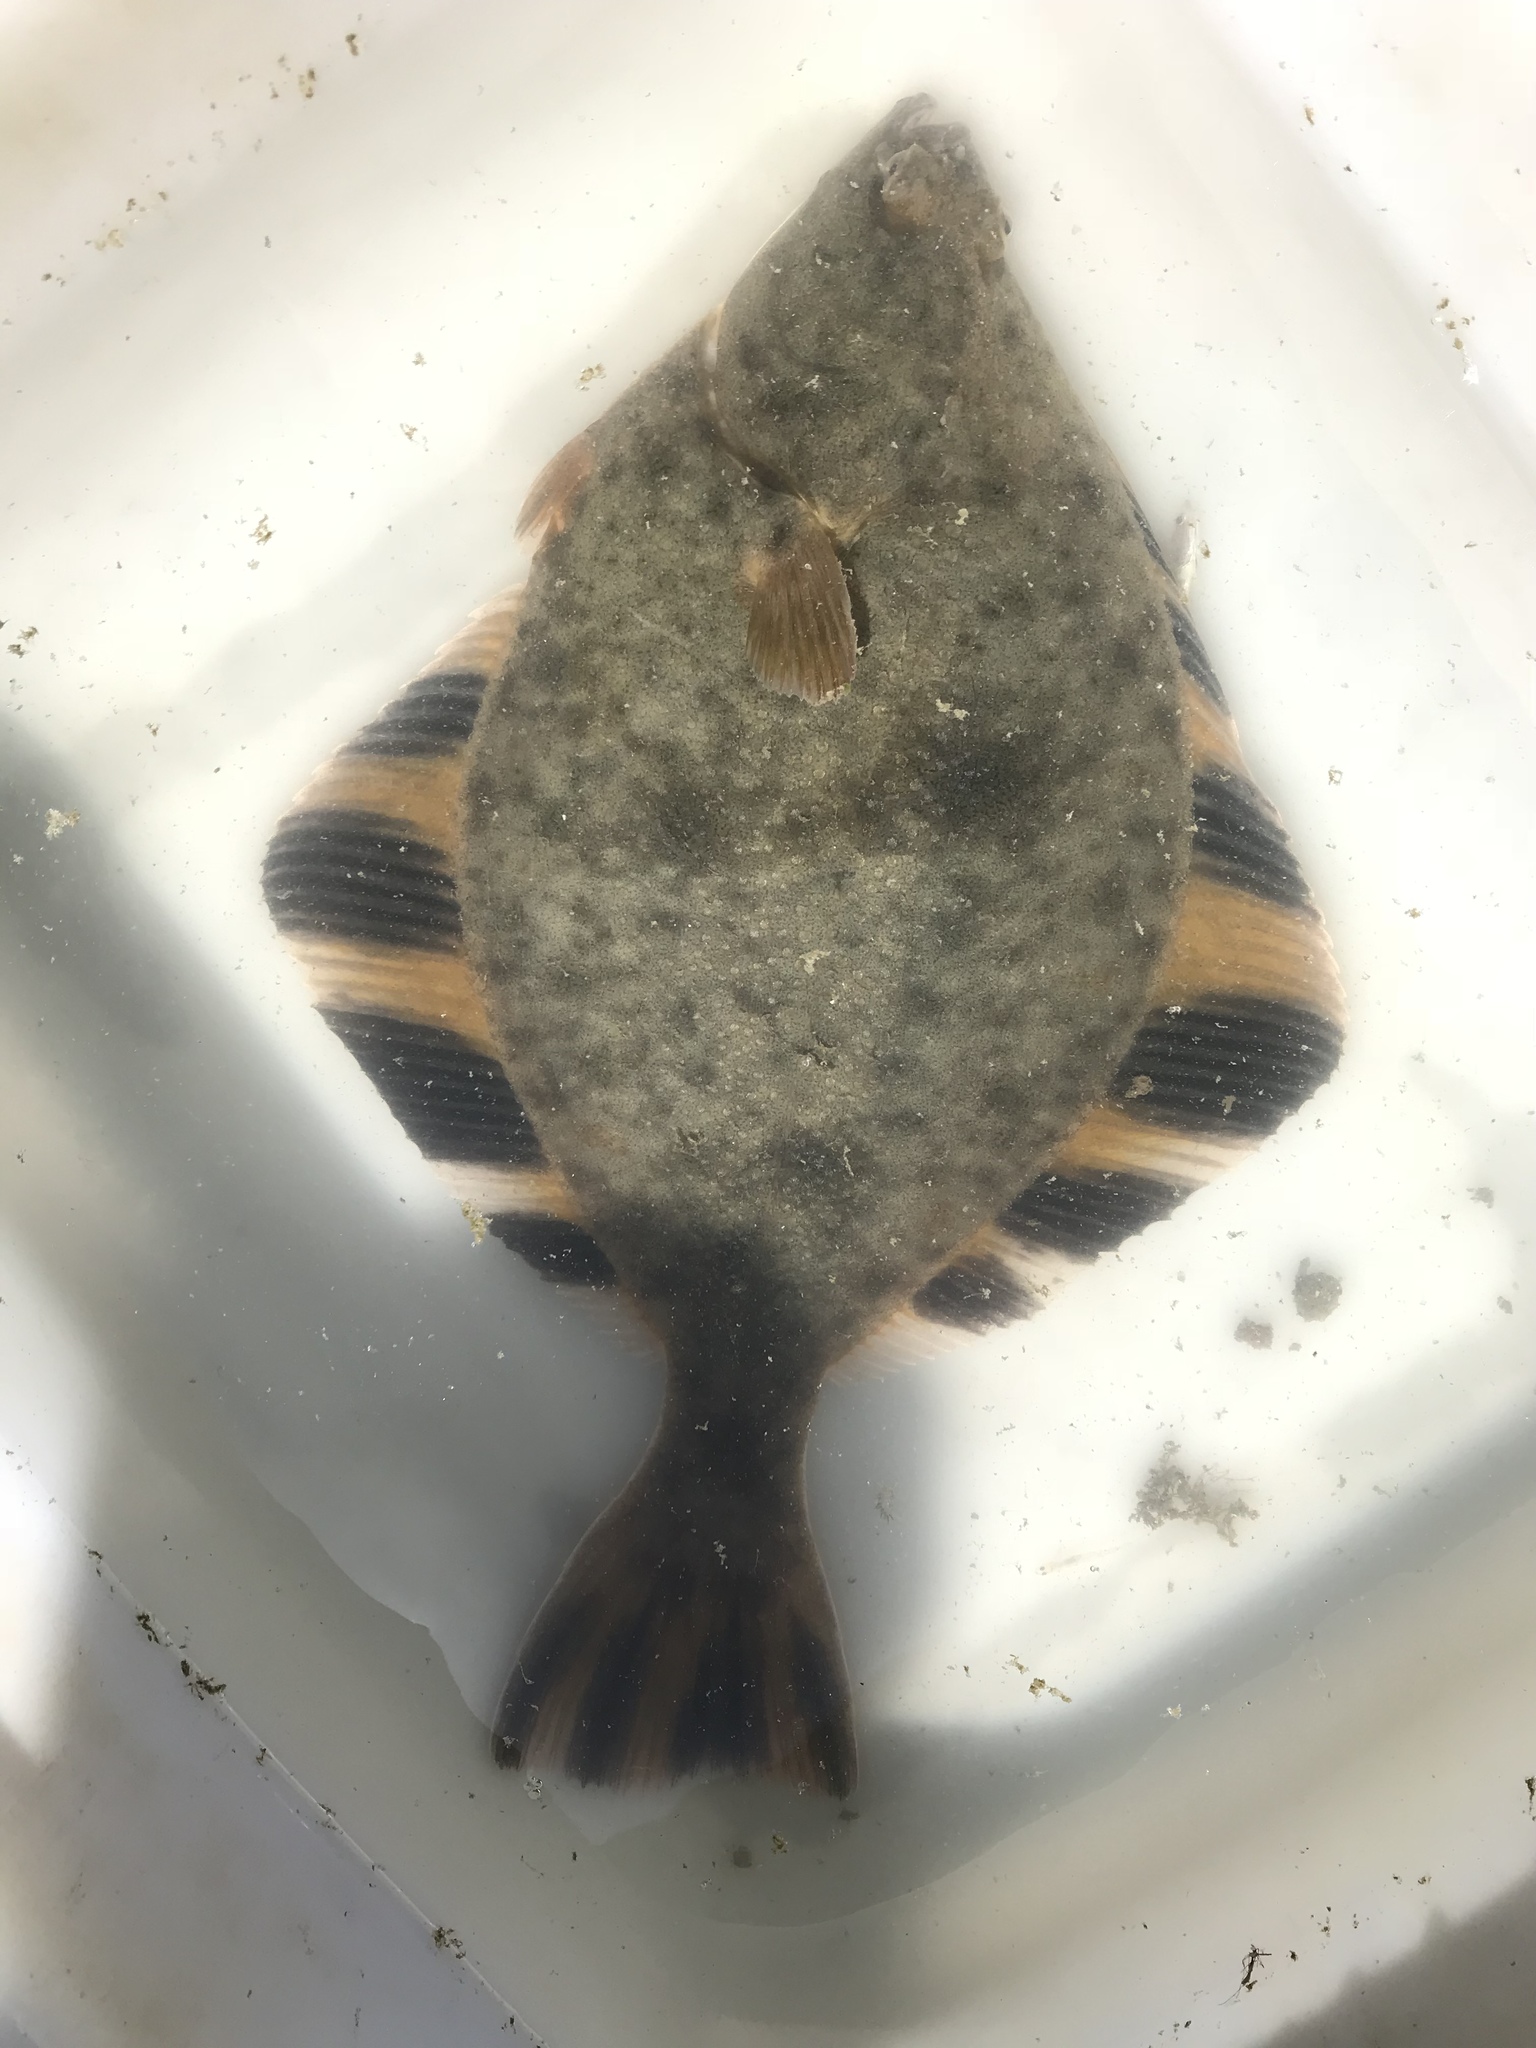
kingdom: Animalia
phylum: Chordata
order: Pleuronectiformes
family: Pleuronectidae
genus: Platichthys
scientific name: Platichthys stellatus
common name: Starry flounder
